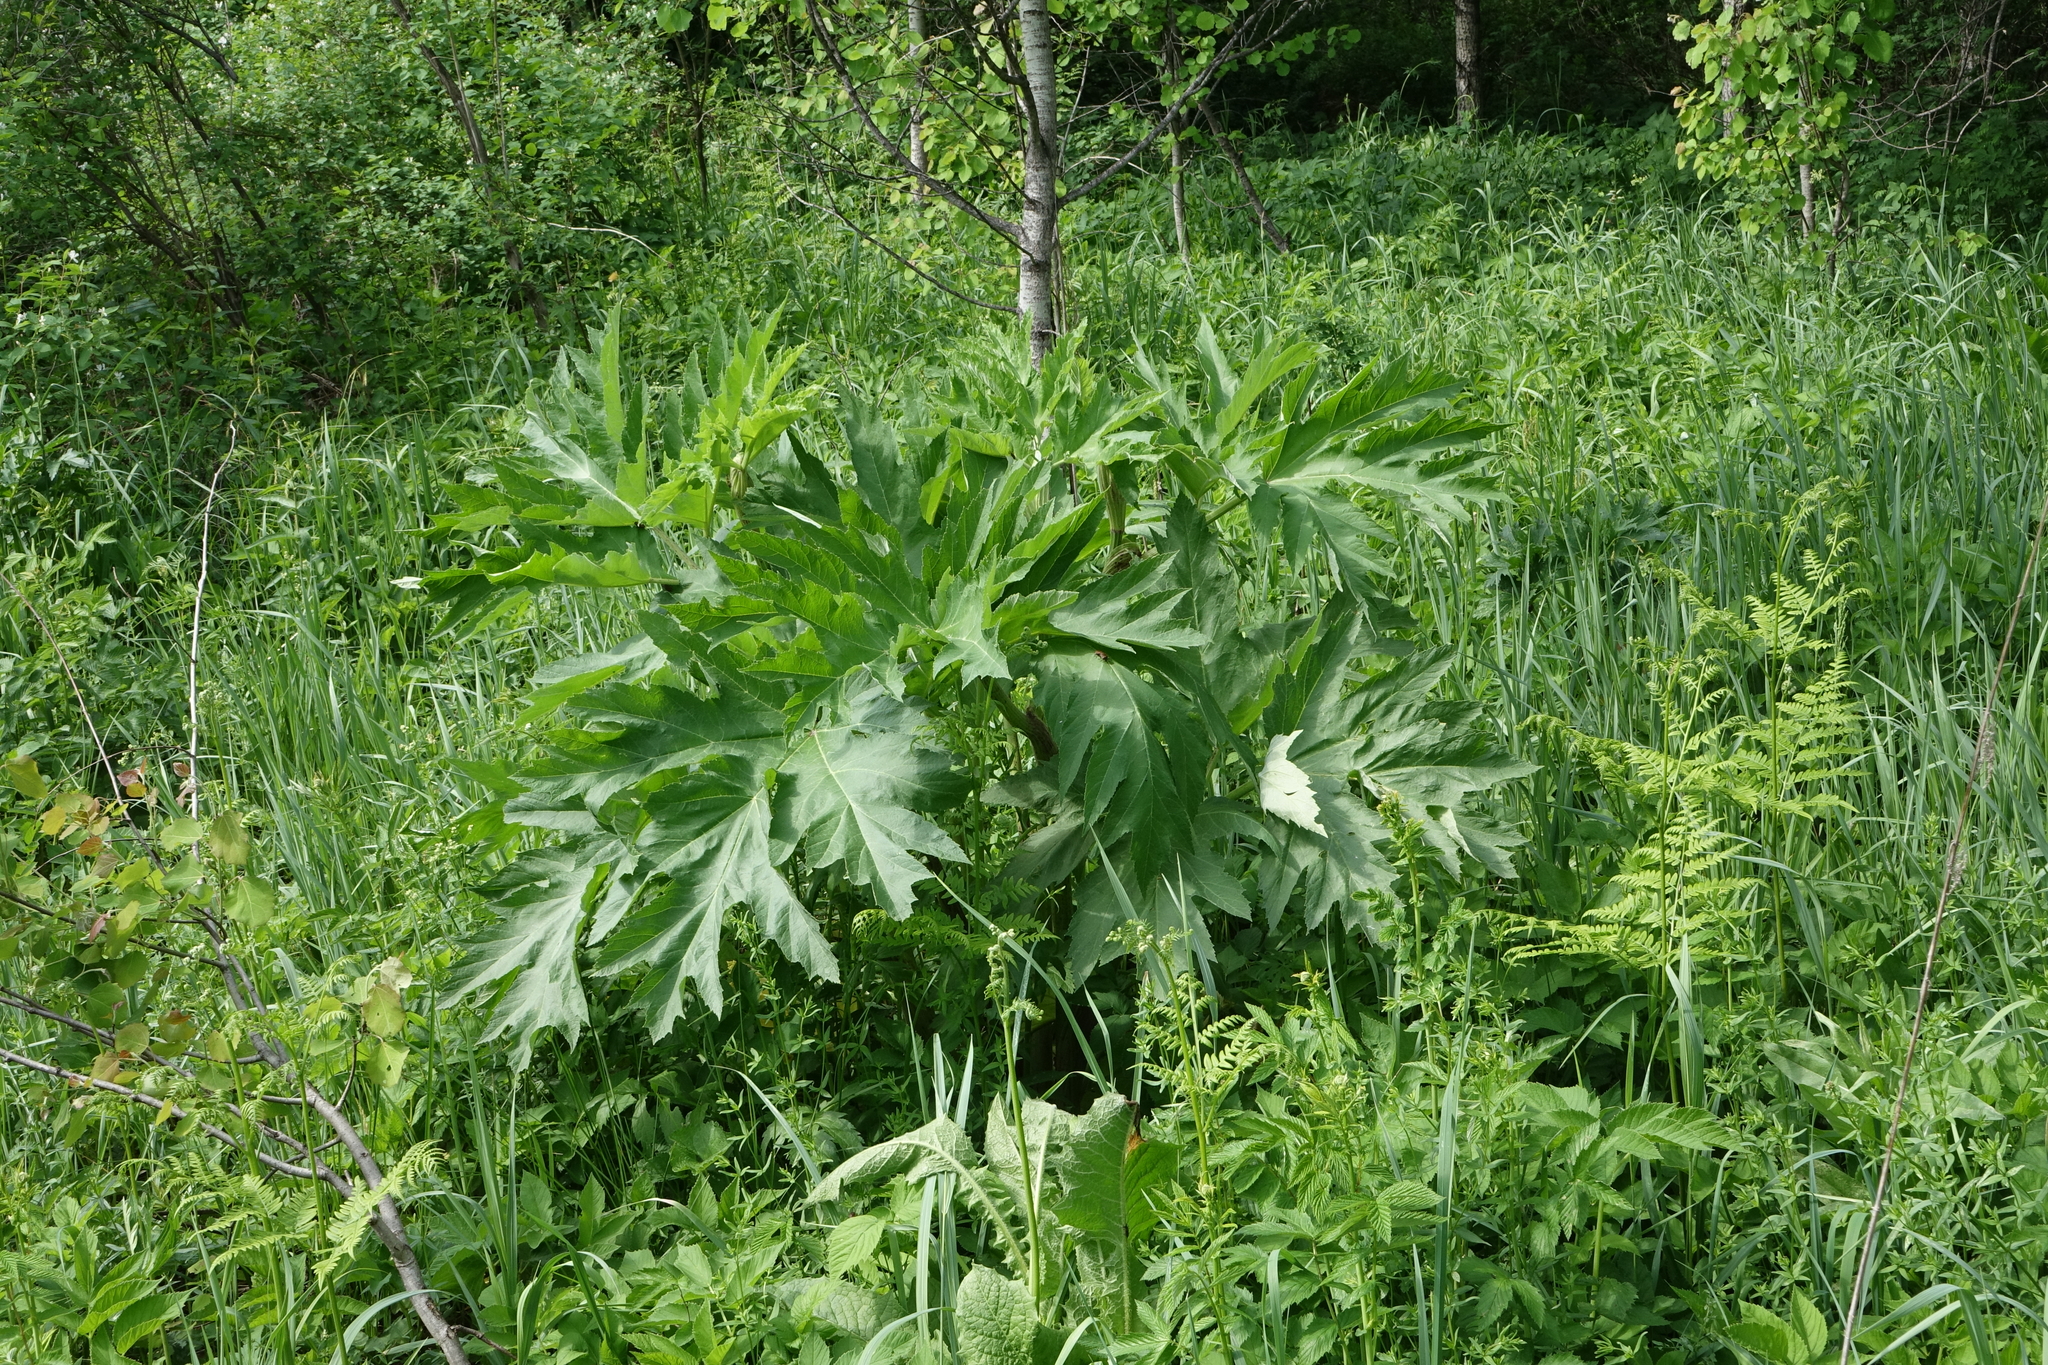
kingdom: Plantae
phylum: Tracheophyta
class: Magnoliopsida
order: Apiales
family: Apiaceae
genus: Heracleum
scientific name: Heracleum dissectum
